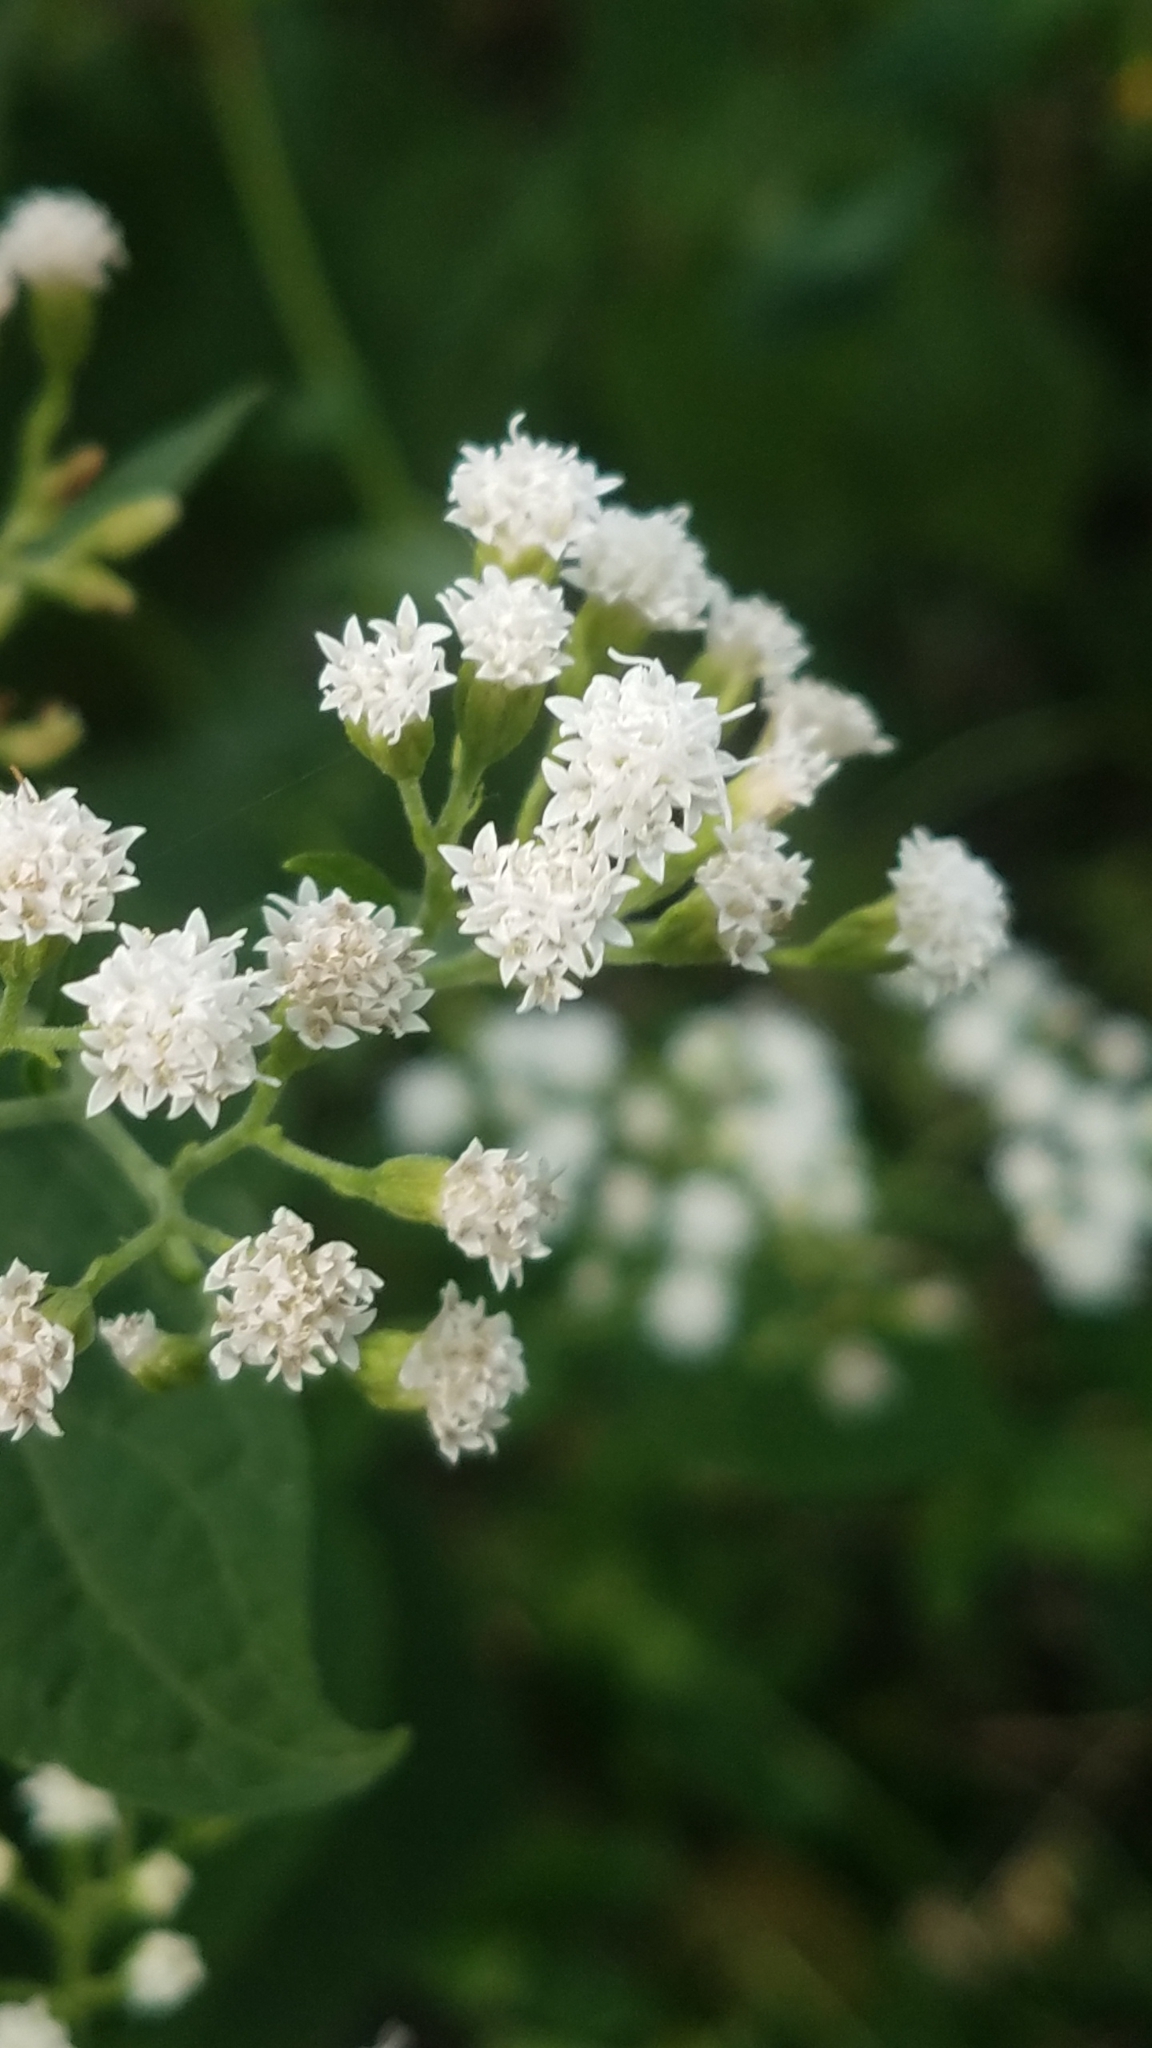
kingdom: Plantae
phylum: Tracheophyta
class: Magnoliopsida
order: Asterales
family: Asteraceae
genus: Ageratina
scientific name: Ageratina altissima
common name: White snakeroot
